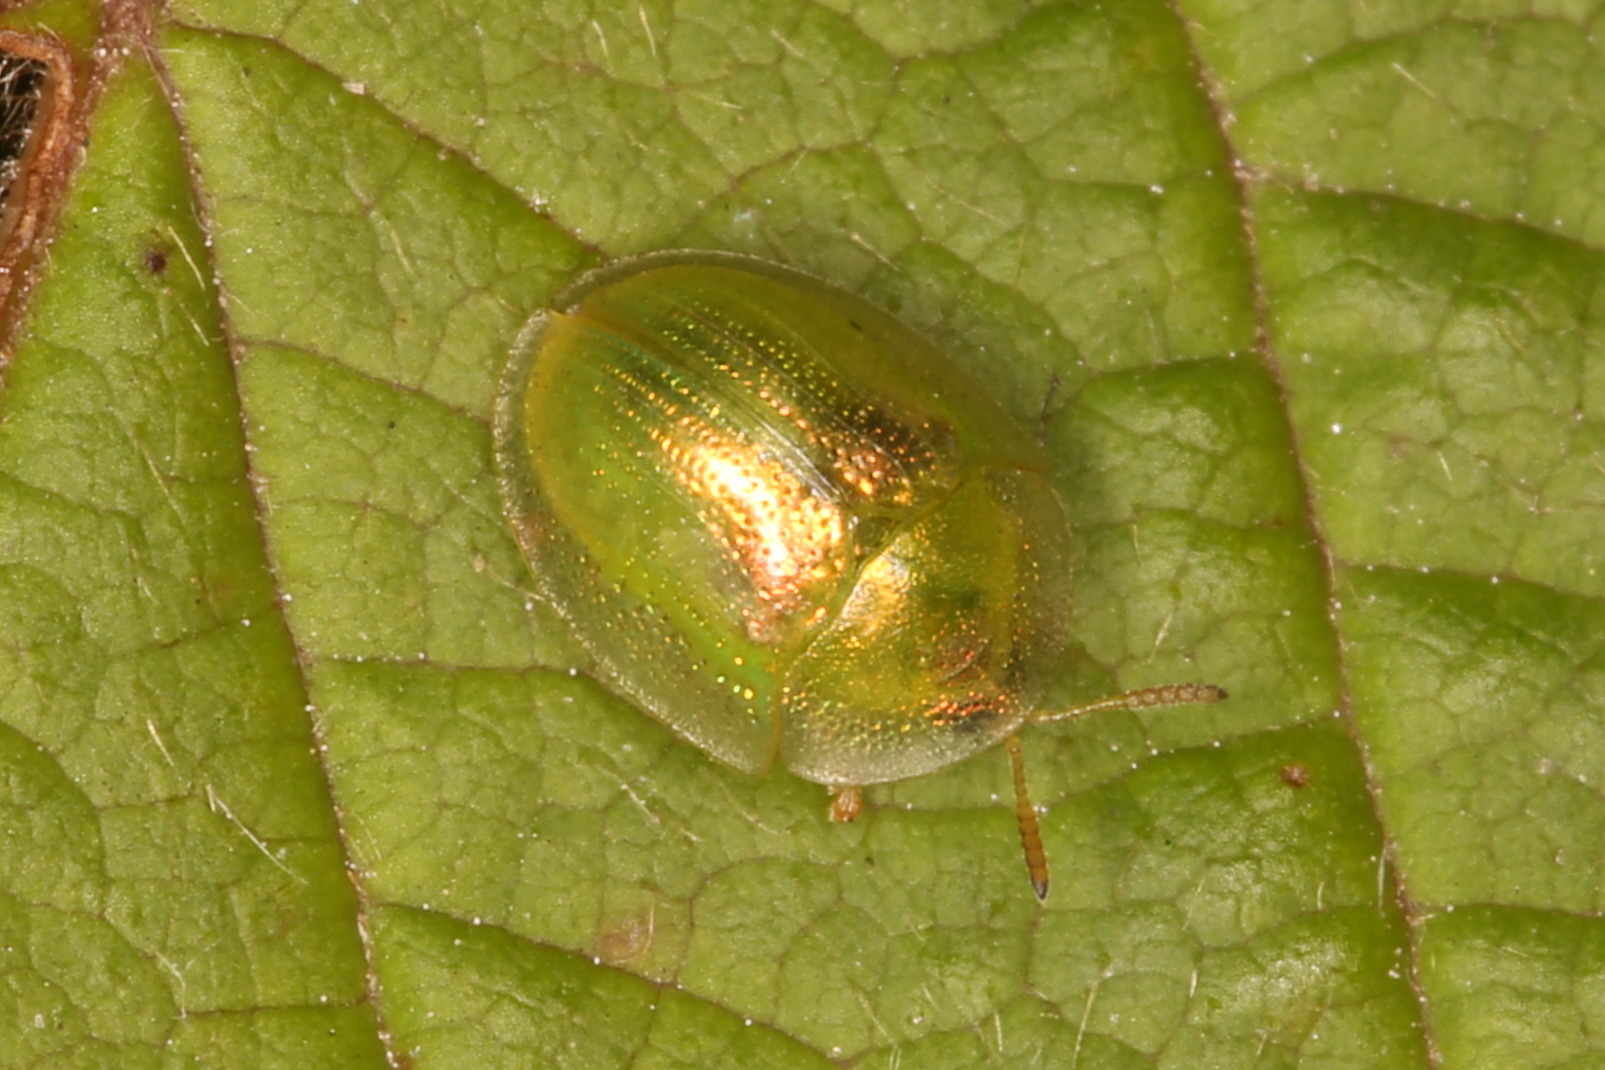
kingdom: Animalia
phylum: Arthropoda
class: Insecta
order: Coleoptera
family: Chrysomelidae
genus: Cassida
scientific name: Cassida margaritacea
